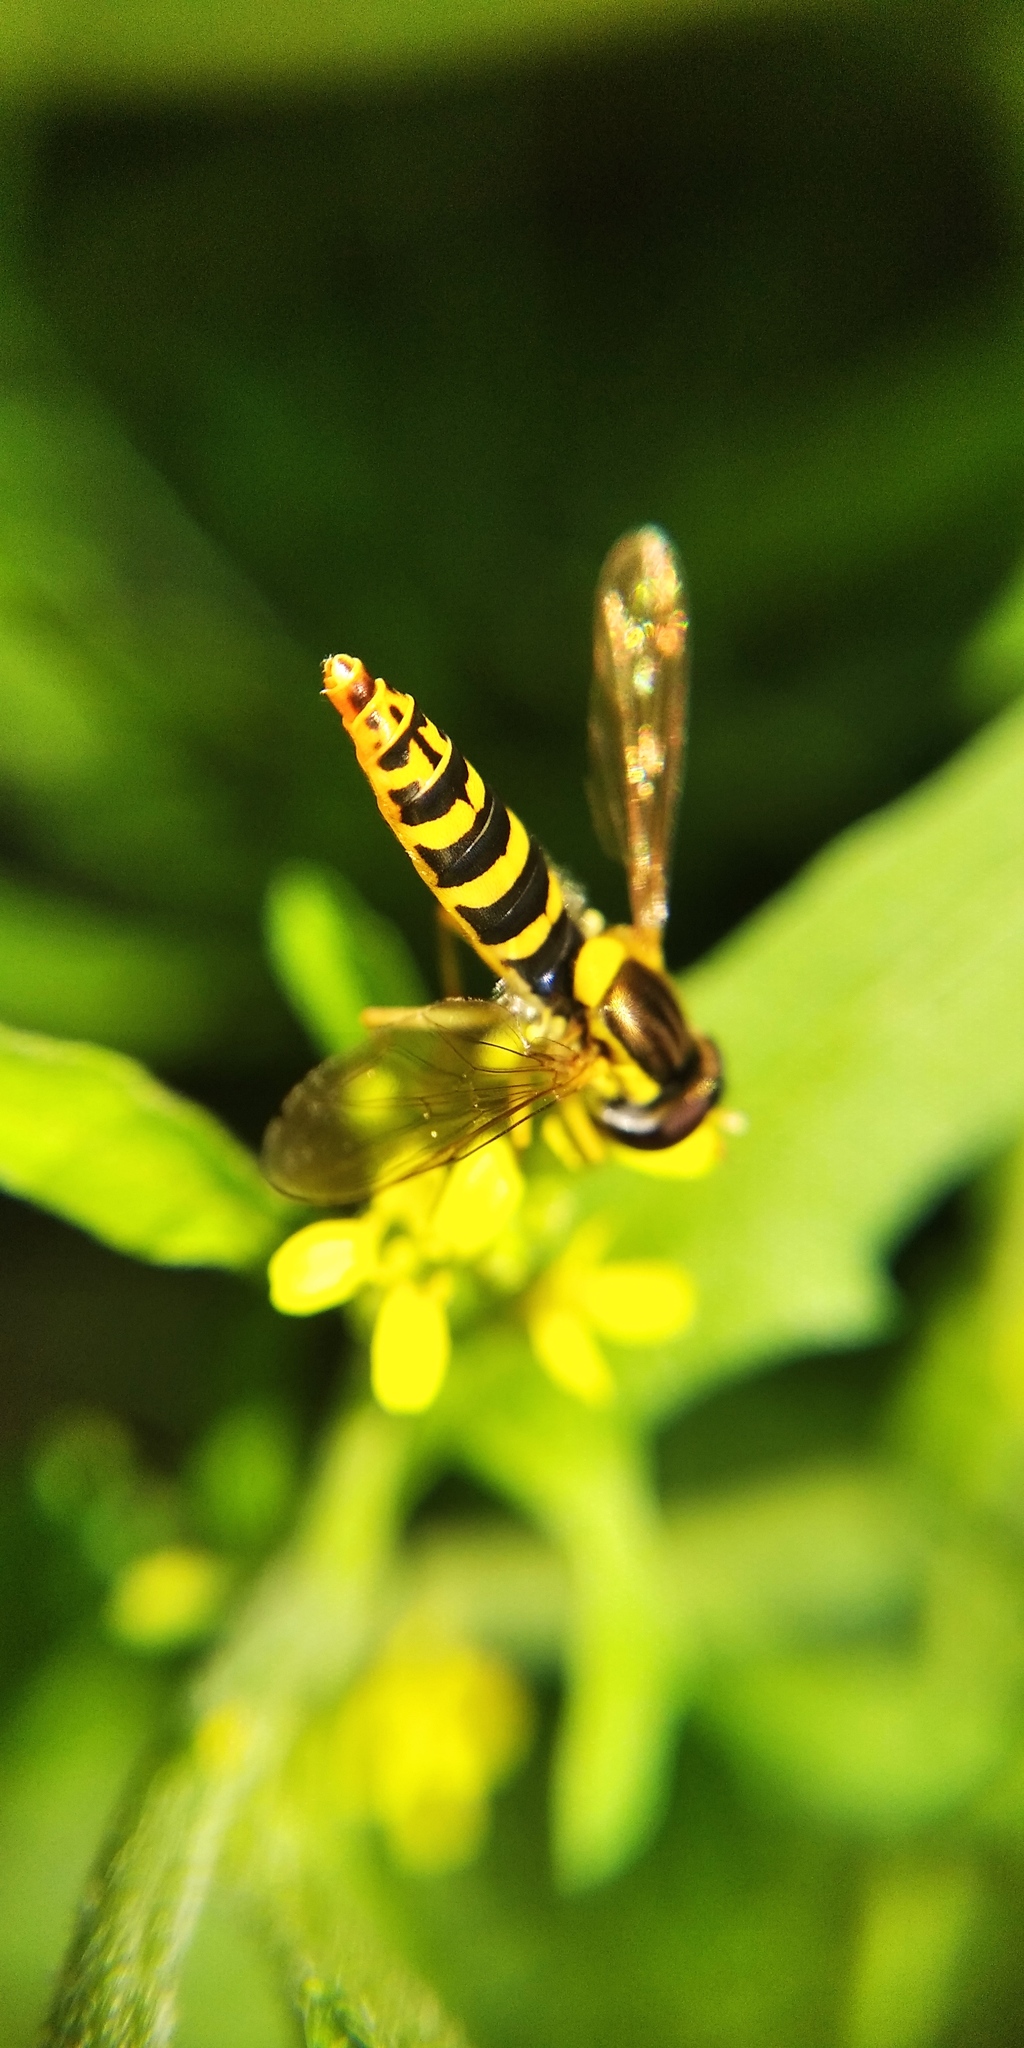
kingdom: Animalia
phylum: Arthropoda
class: Insecta
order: Diptera
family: Syrphidae
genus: Sphaerophoria
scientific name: Sphaerophoria
